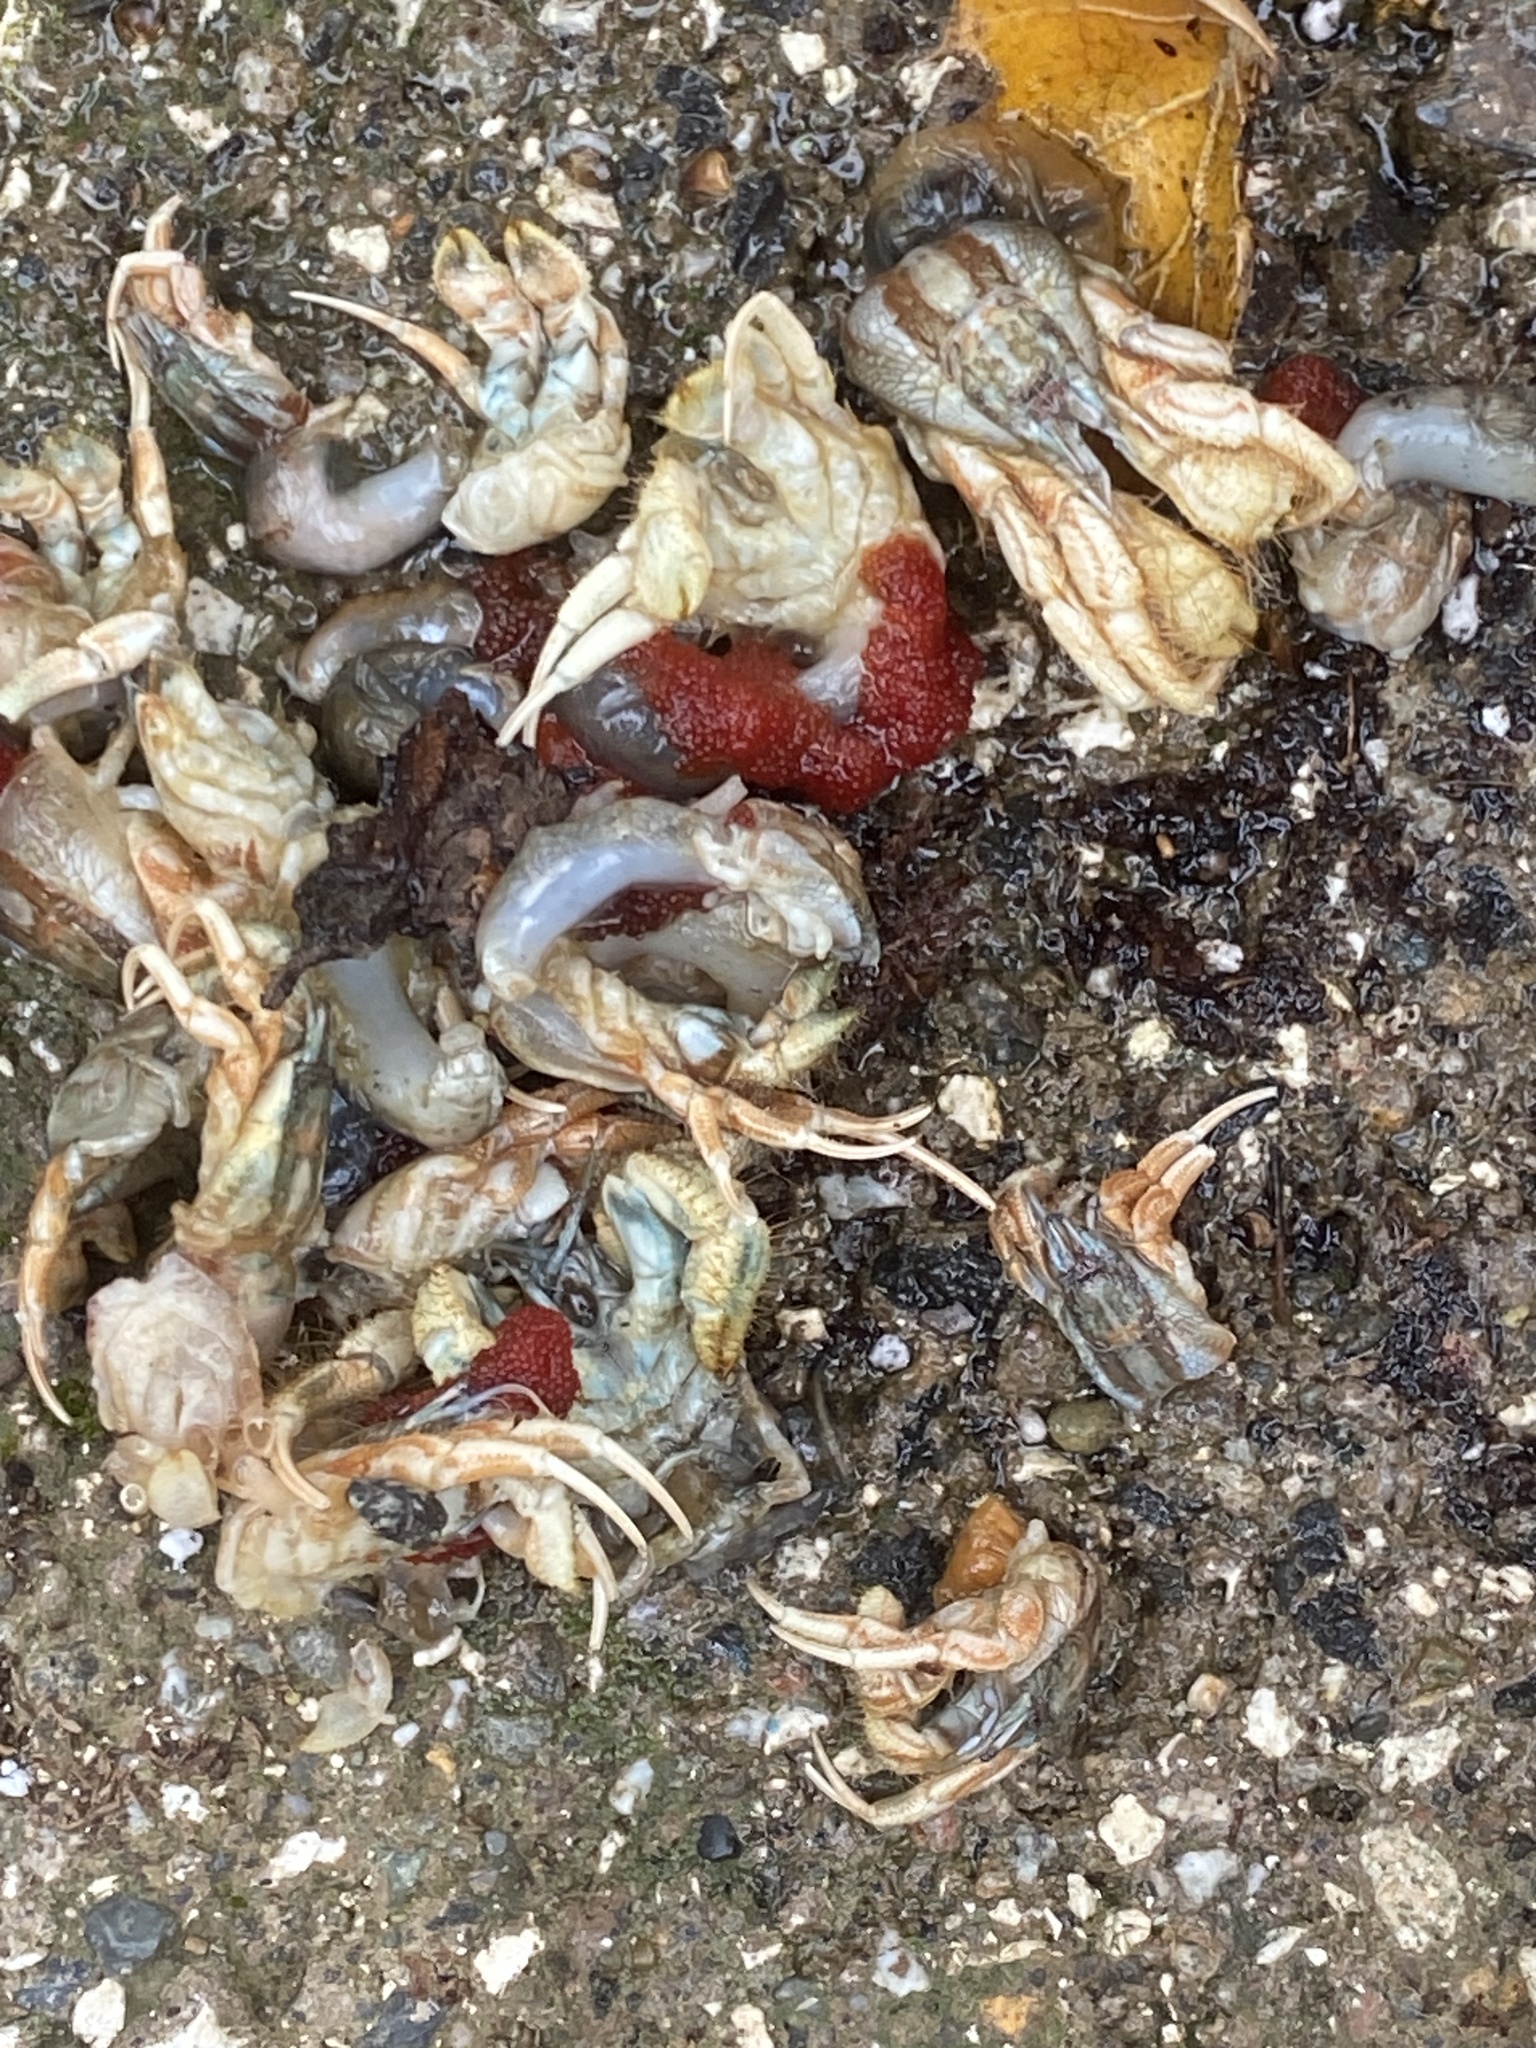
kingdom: Animalia
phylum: Arthropoda
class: Malacostraca
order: Decapoda
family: Diogenidae
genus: Isocheles
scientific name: Isocheles pilosus
